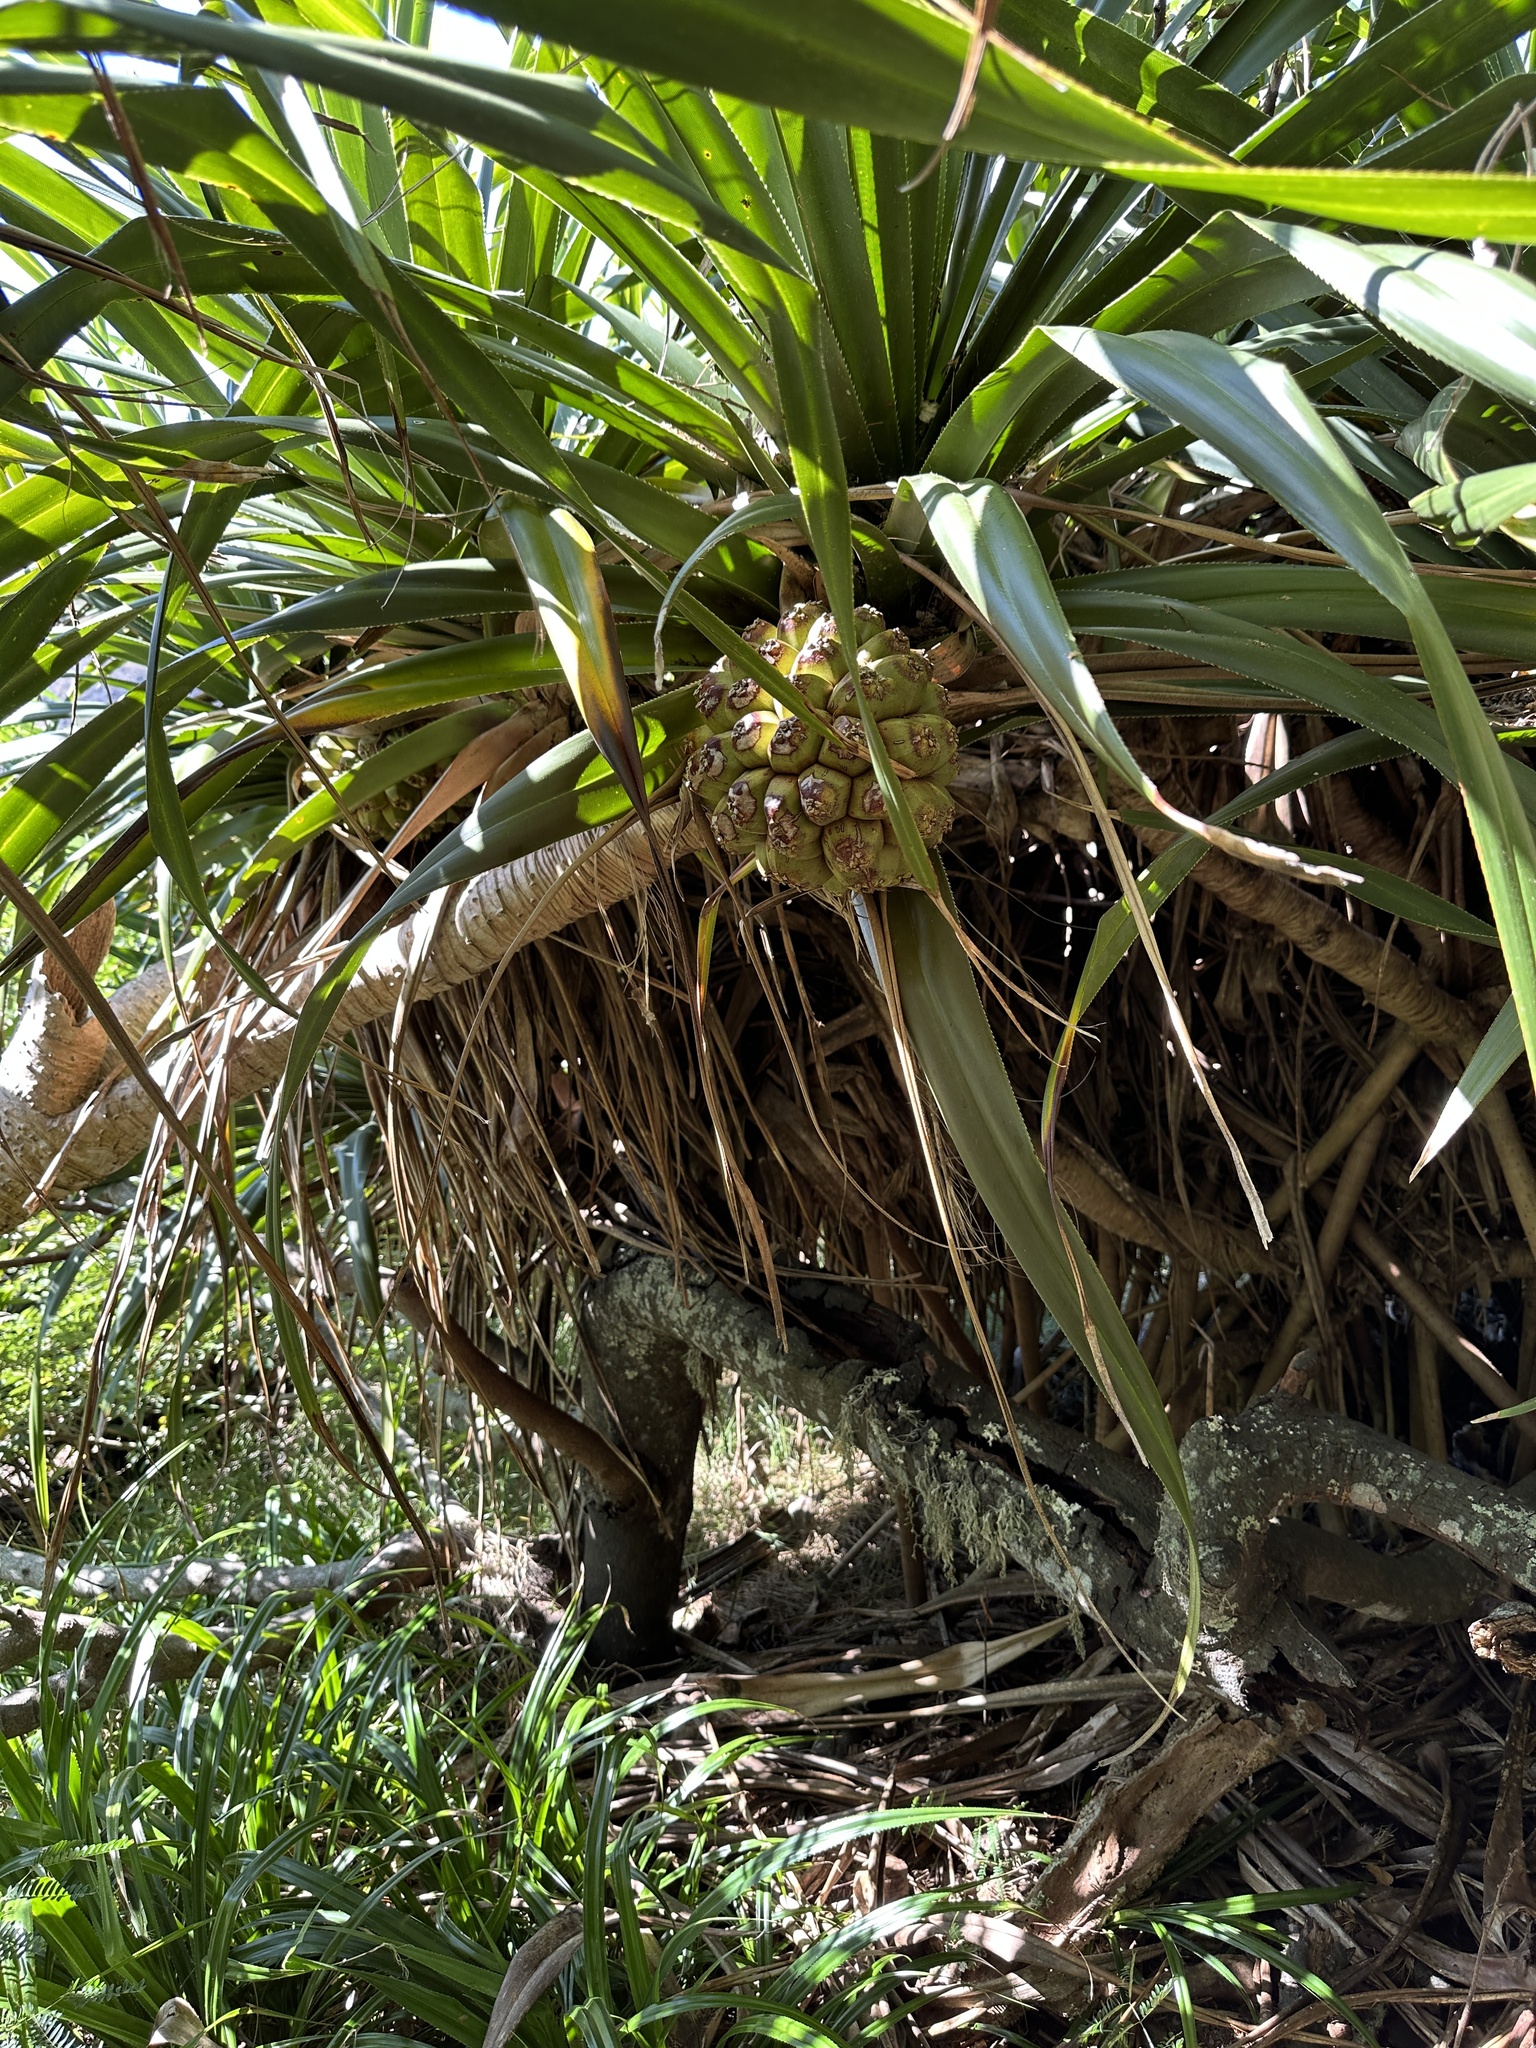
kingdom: Plantae
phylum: Tracheophyta
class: Liliopsida
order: Pandanales
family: Pandanaceae
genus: Pandanus
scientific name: Pandanus boninensis
